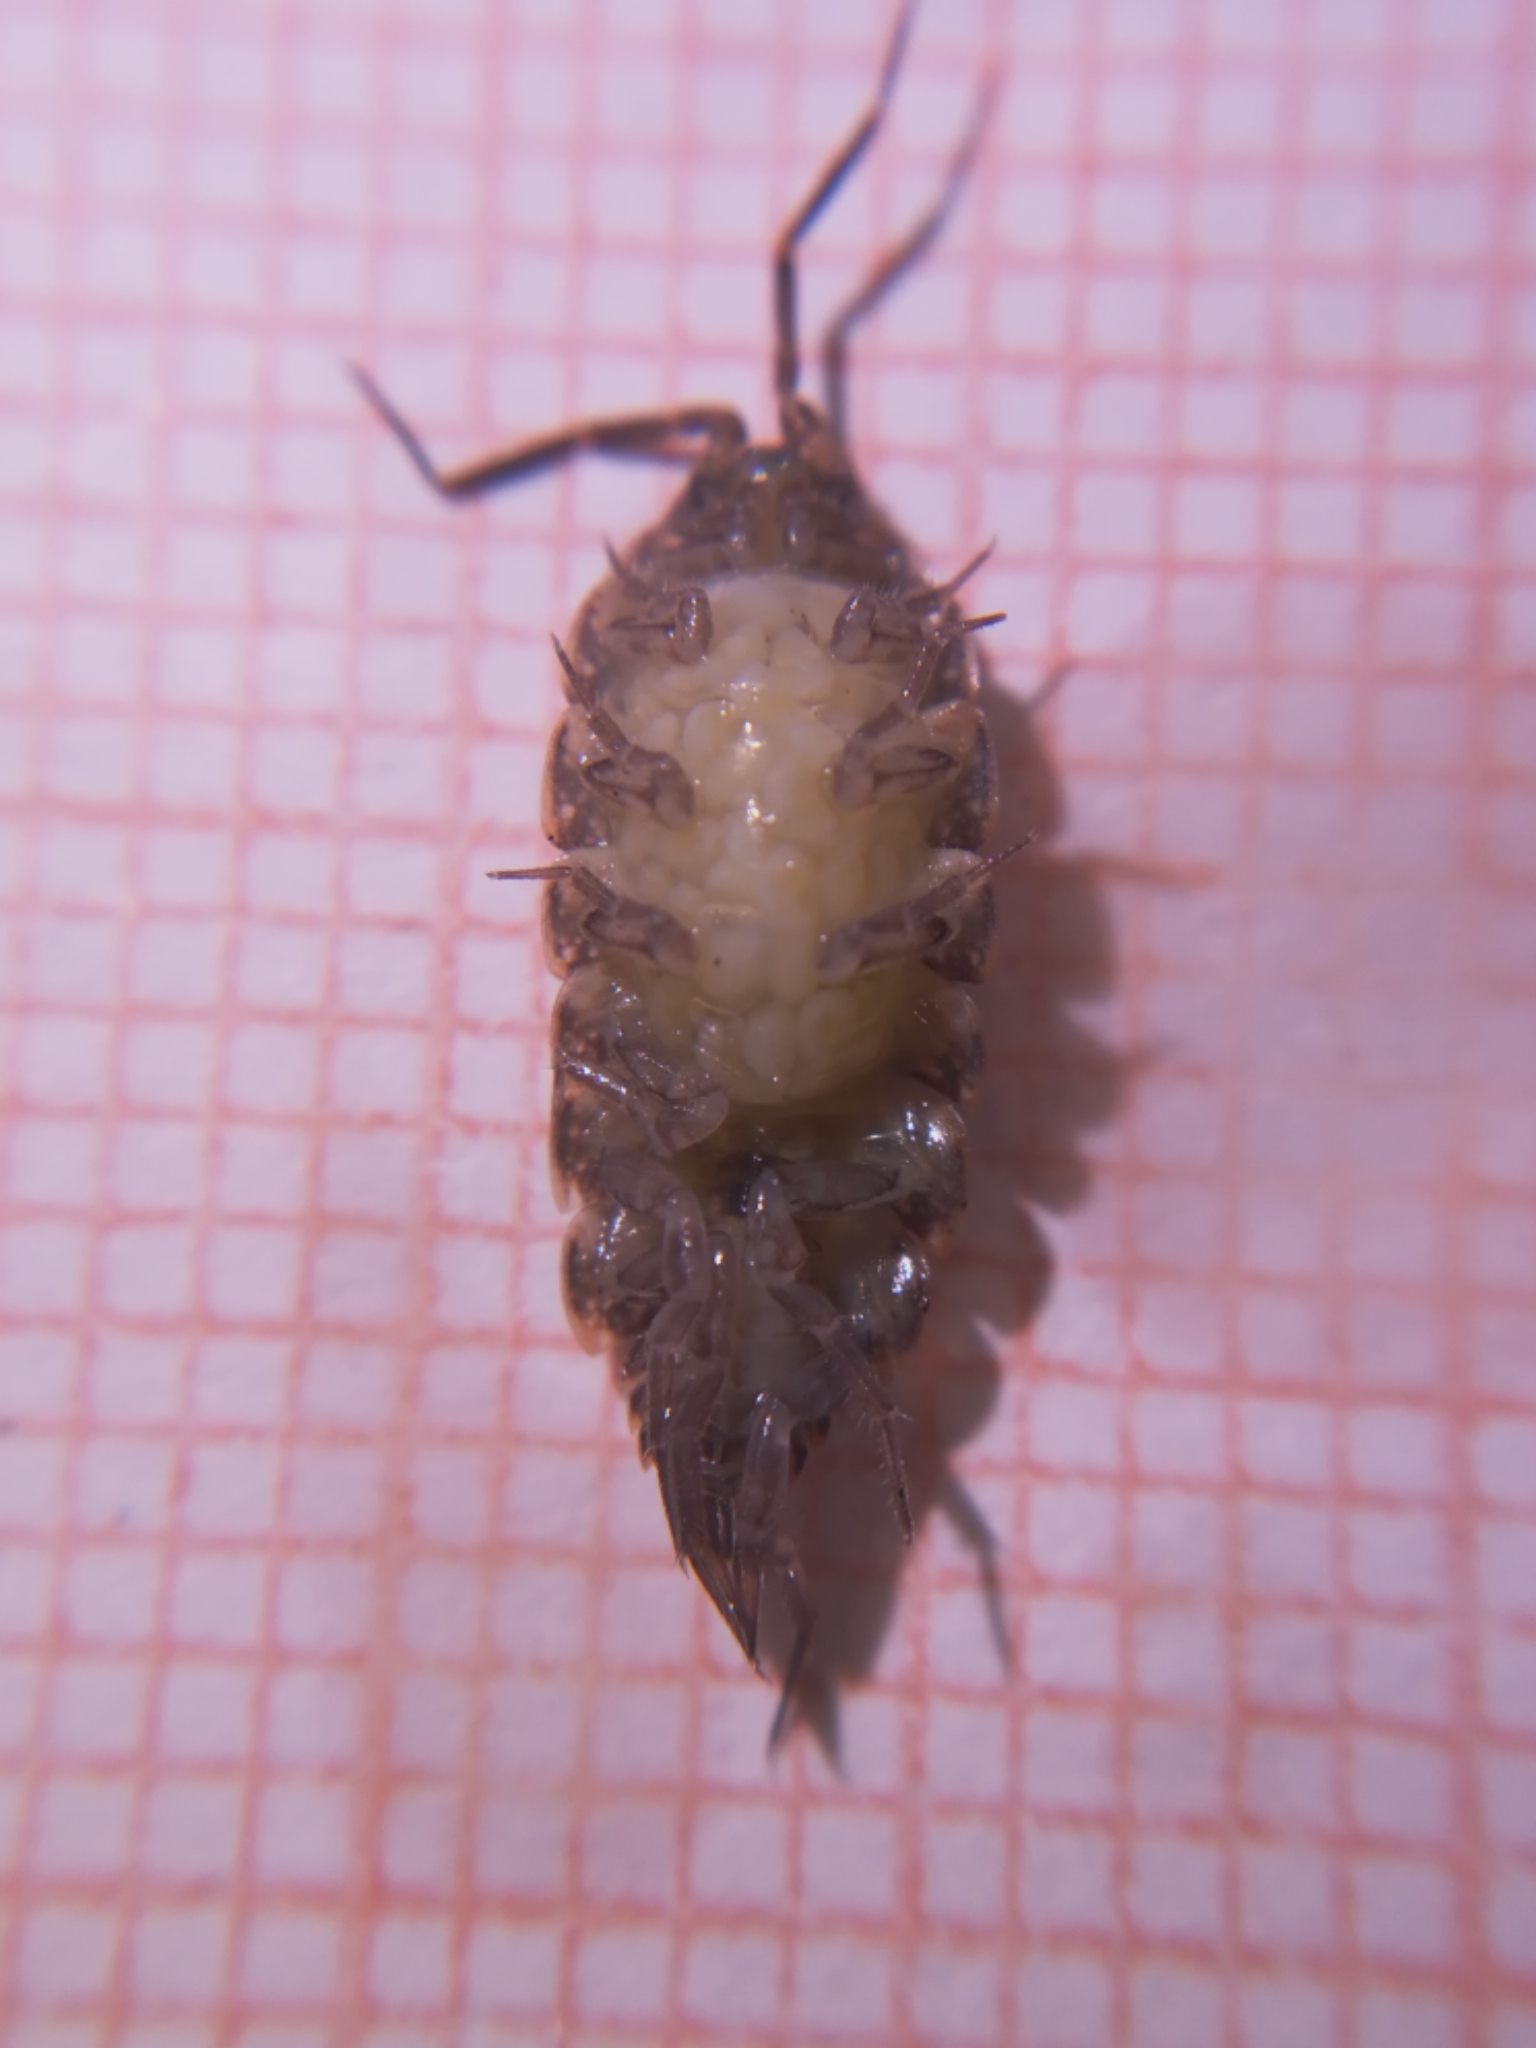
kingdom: Animalia
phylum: Arthropoda
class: Malacostraca
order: Isopoda
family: Agnaridae
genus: Orthometopon
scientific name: Orthometopon dalmatinum
